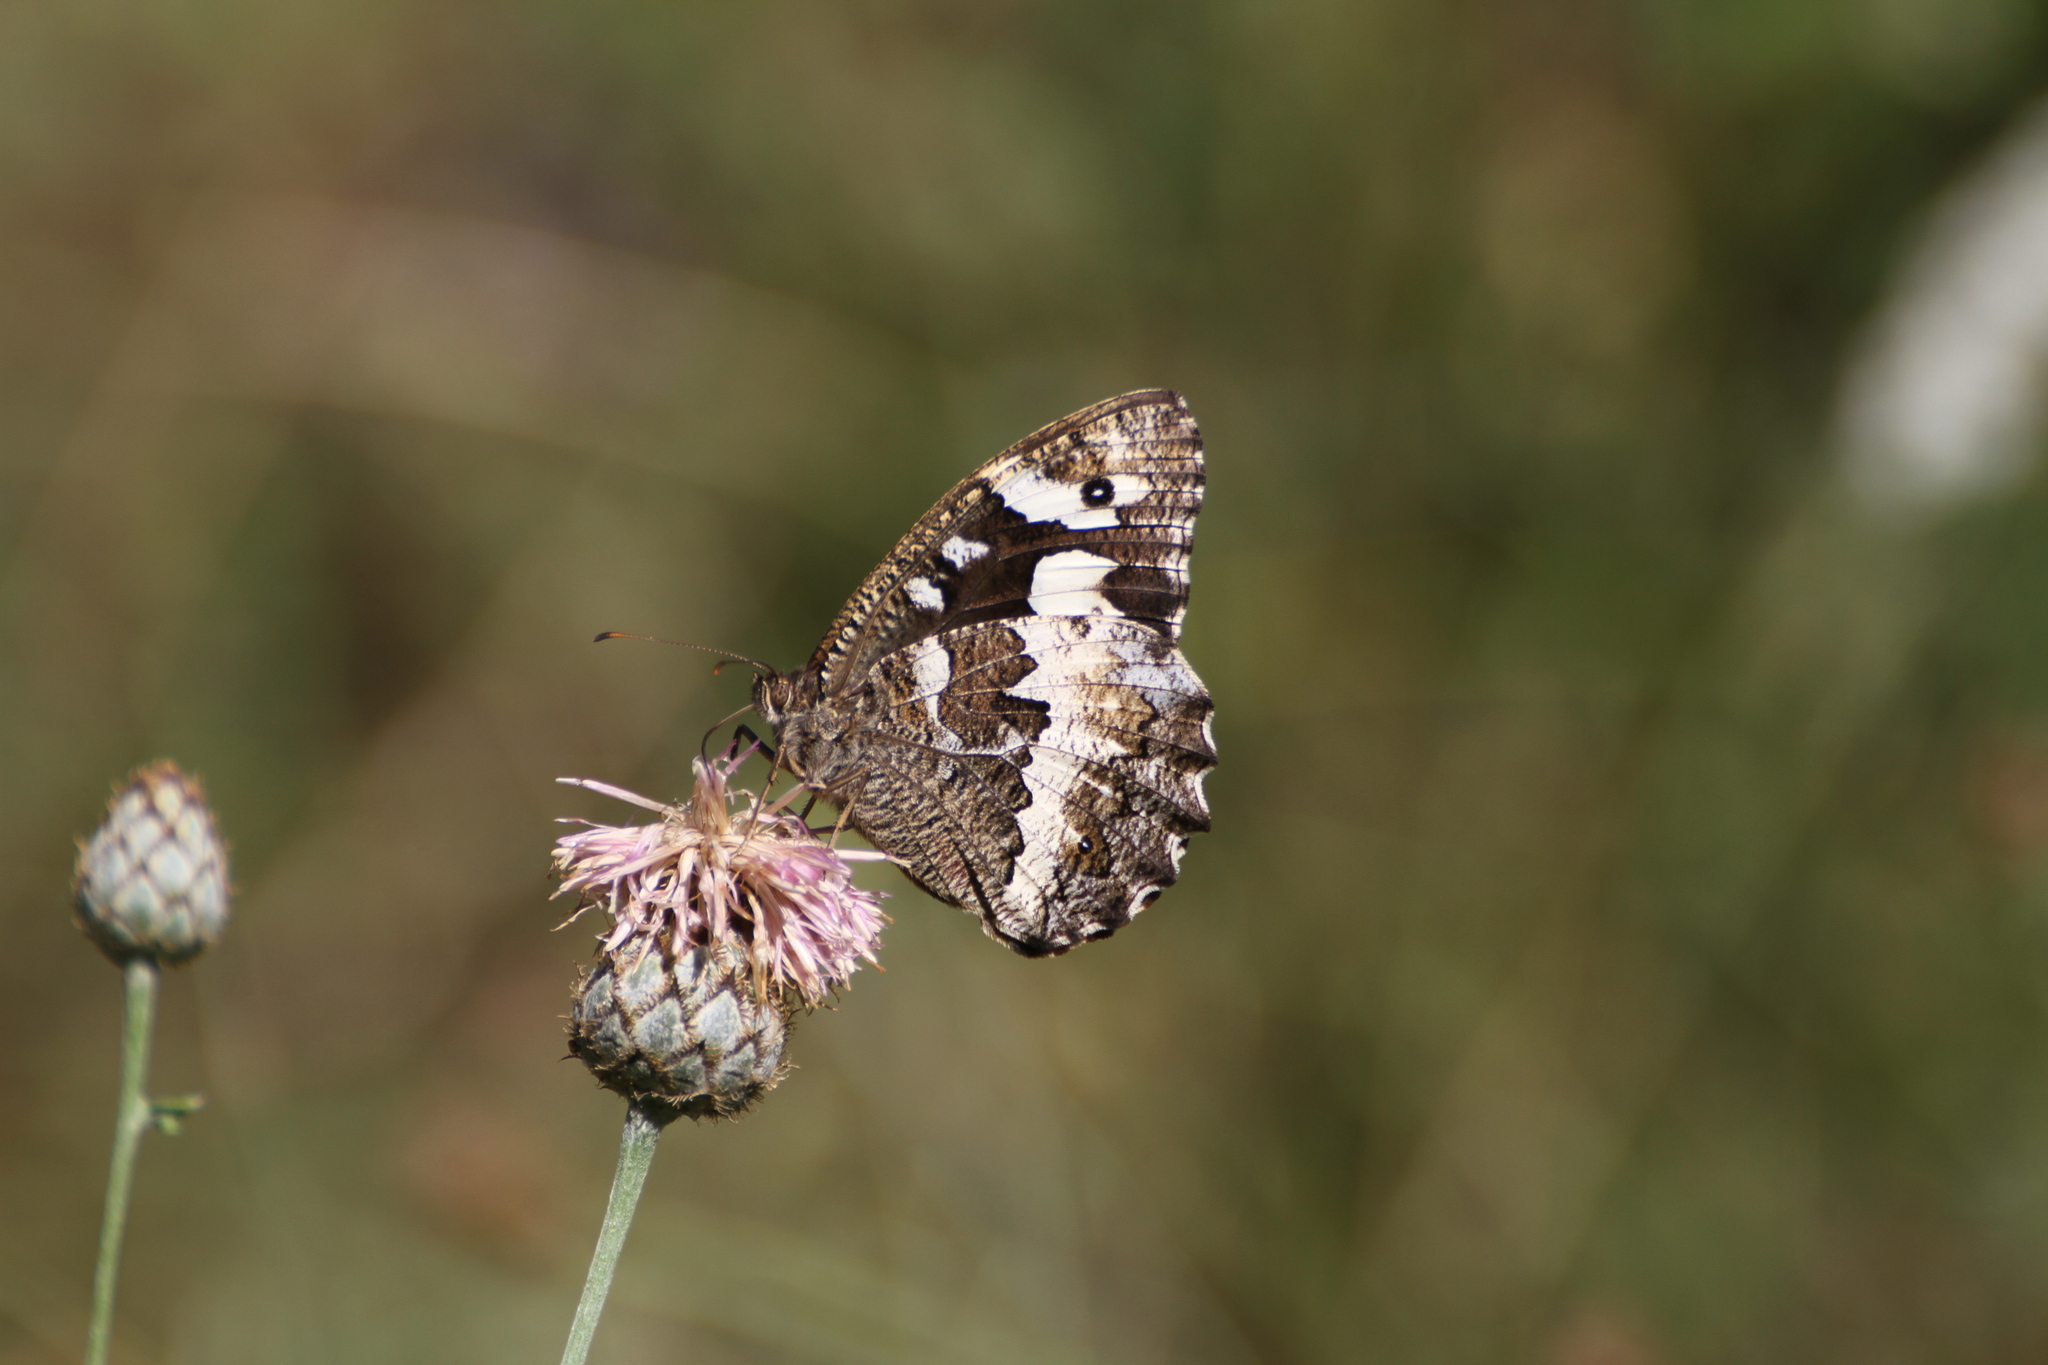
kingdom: Animalia
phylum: Arthropoda
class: Insecta
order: Lepidoptera
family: Lycaenidae
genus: Loweia
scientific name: Loweia tityrus
